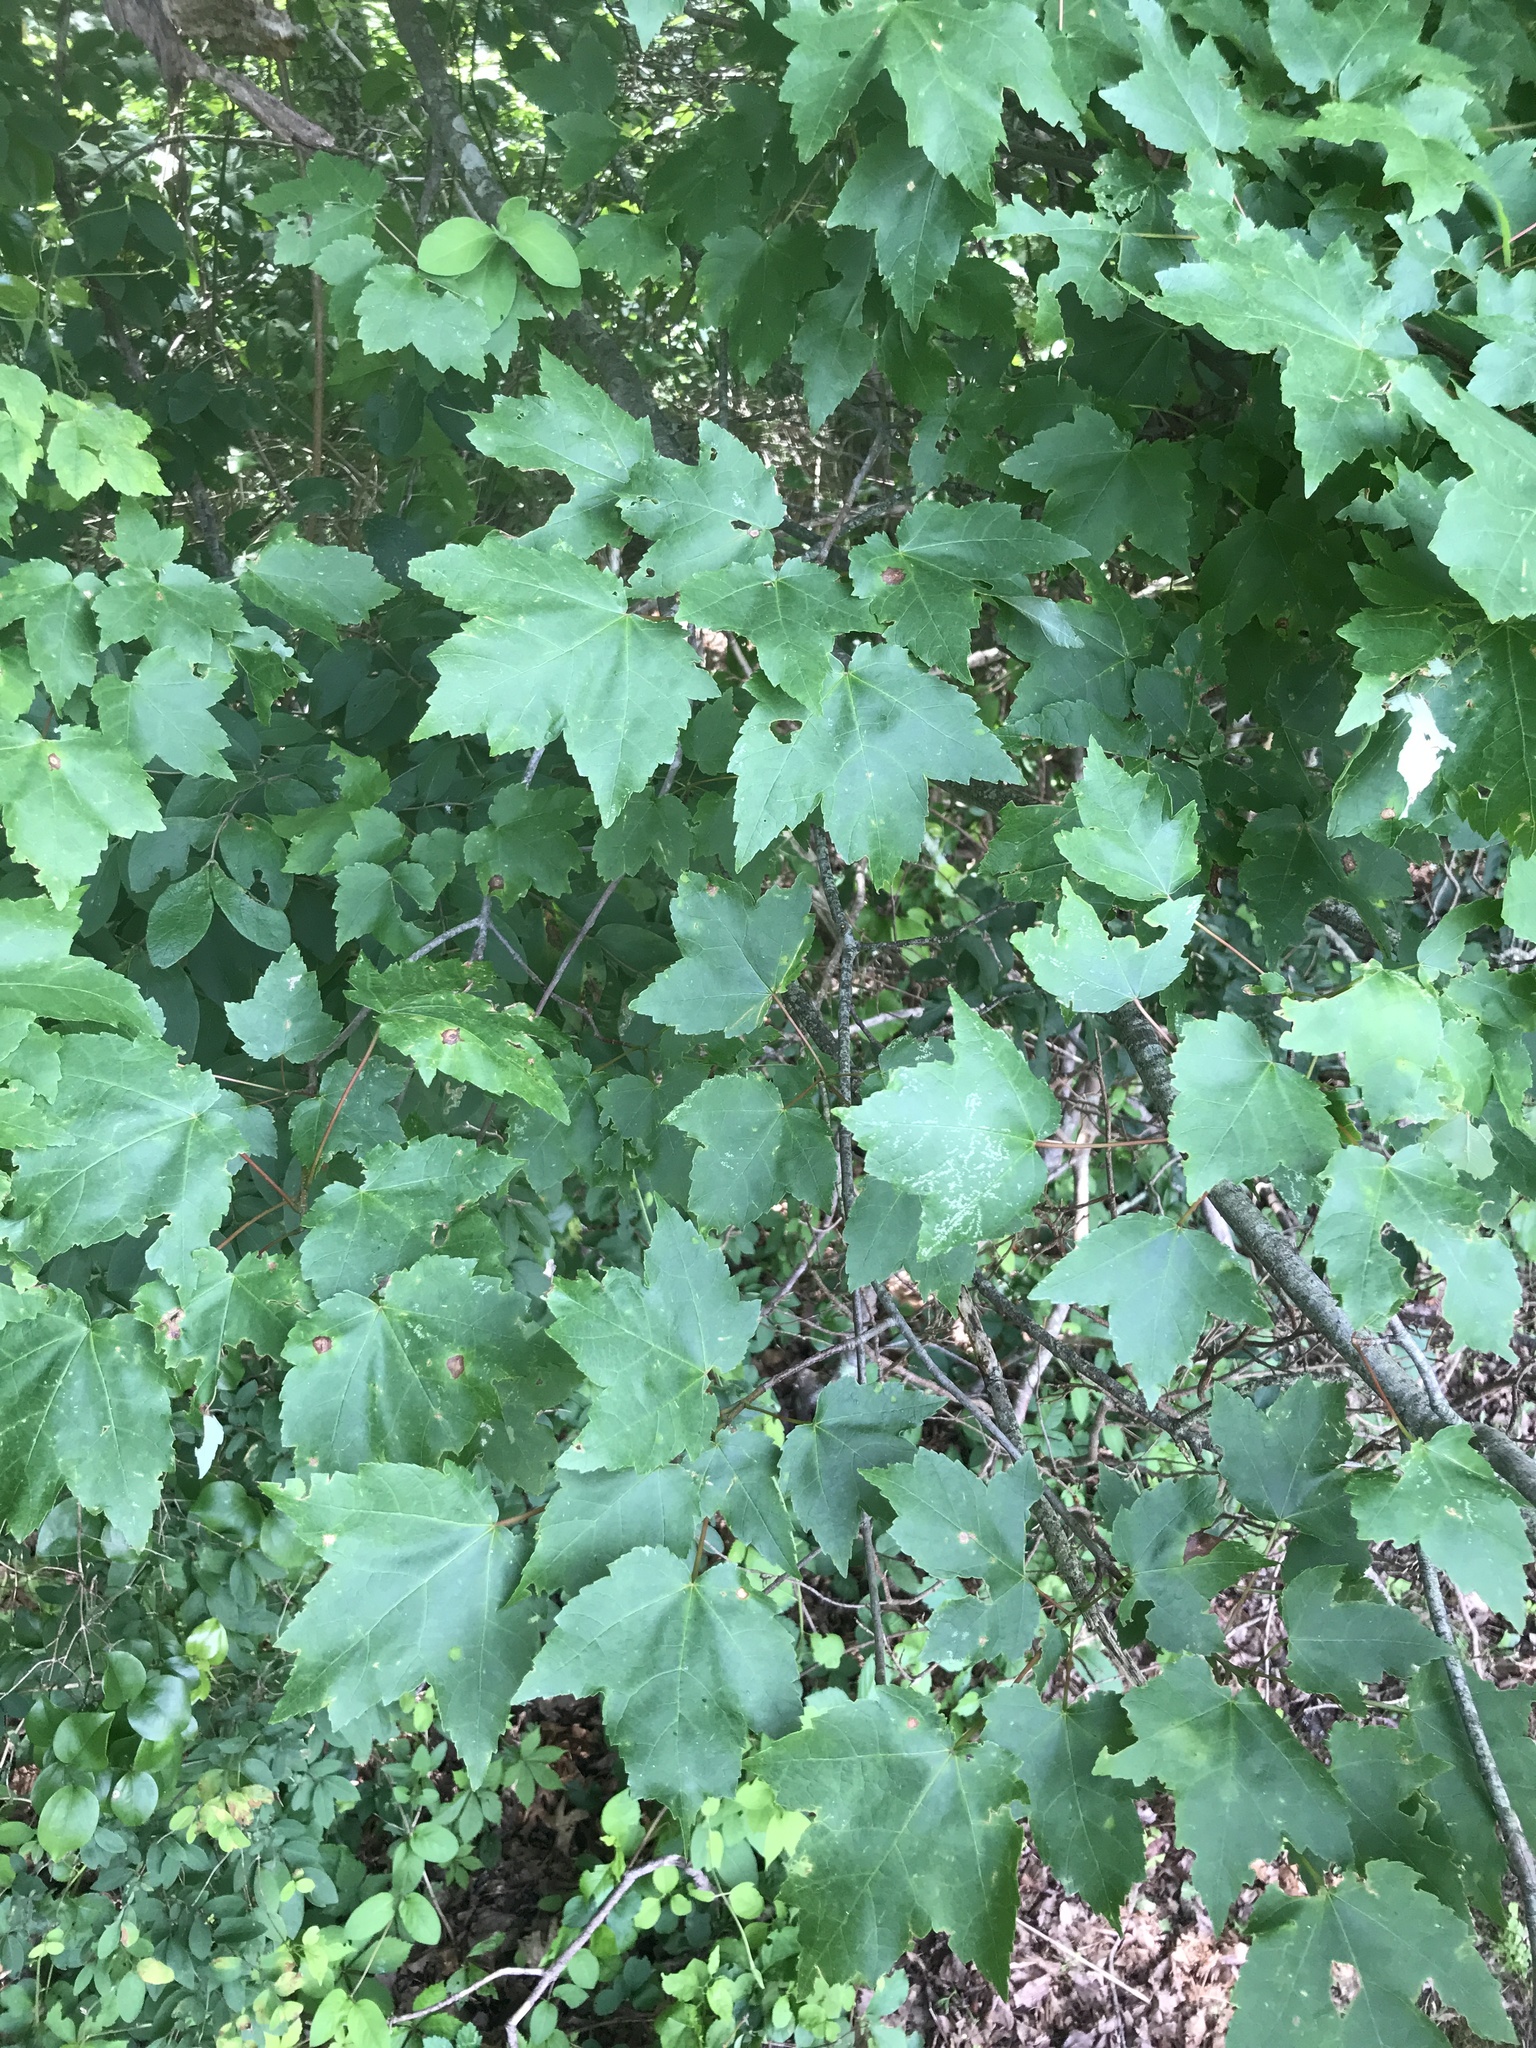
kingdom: Plantae
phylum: Tracheophyta
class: Magnoliopsida
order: Sapindales
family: Sapindaceae
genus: Acer
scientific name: Acer rubrum
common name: Red maple
